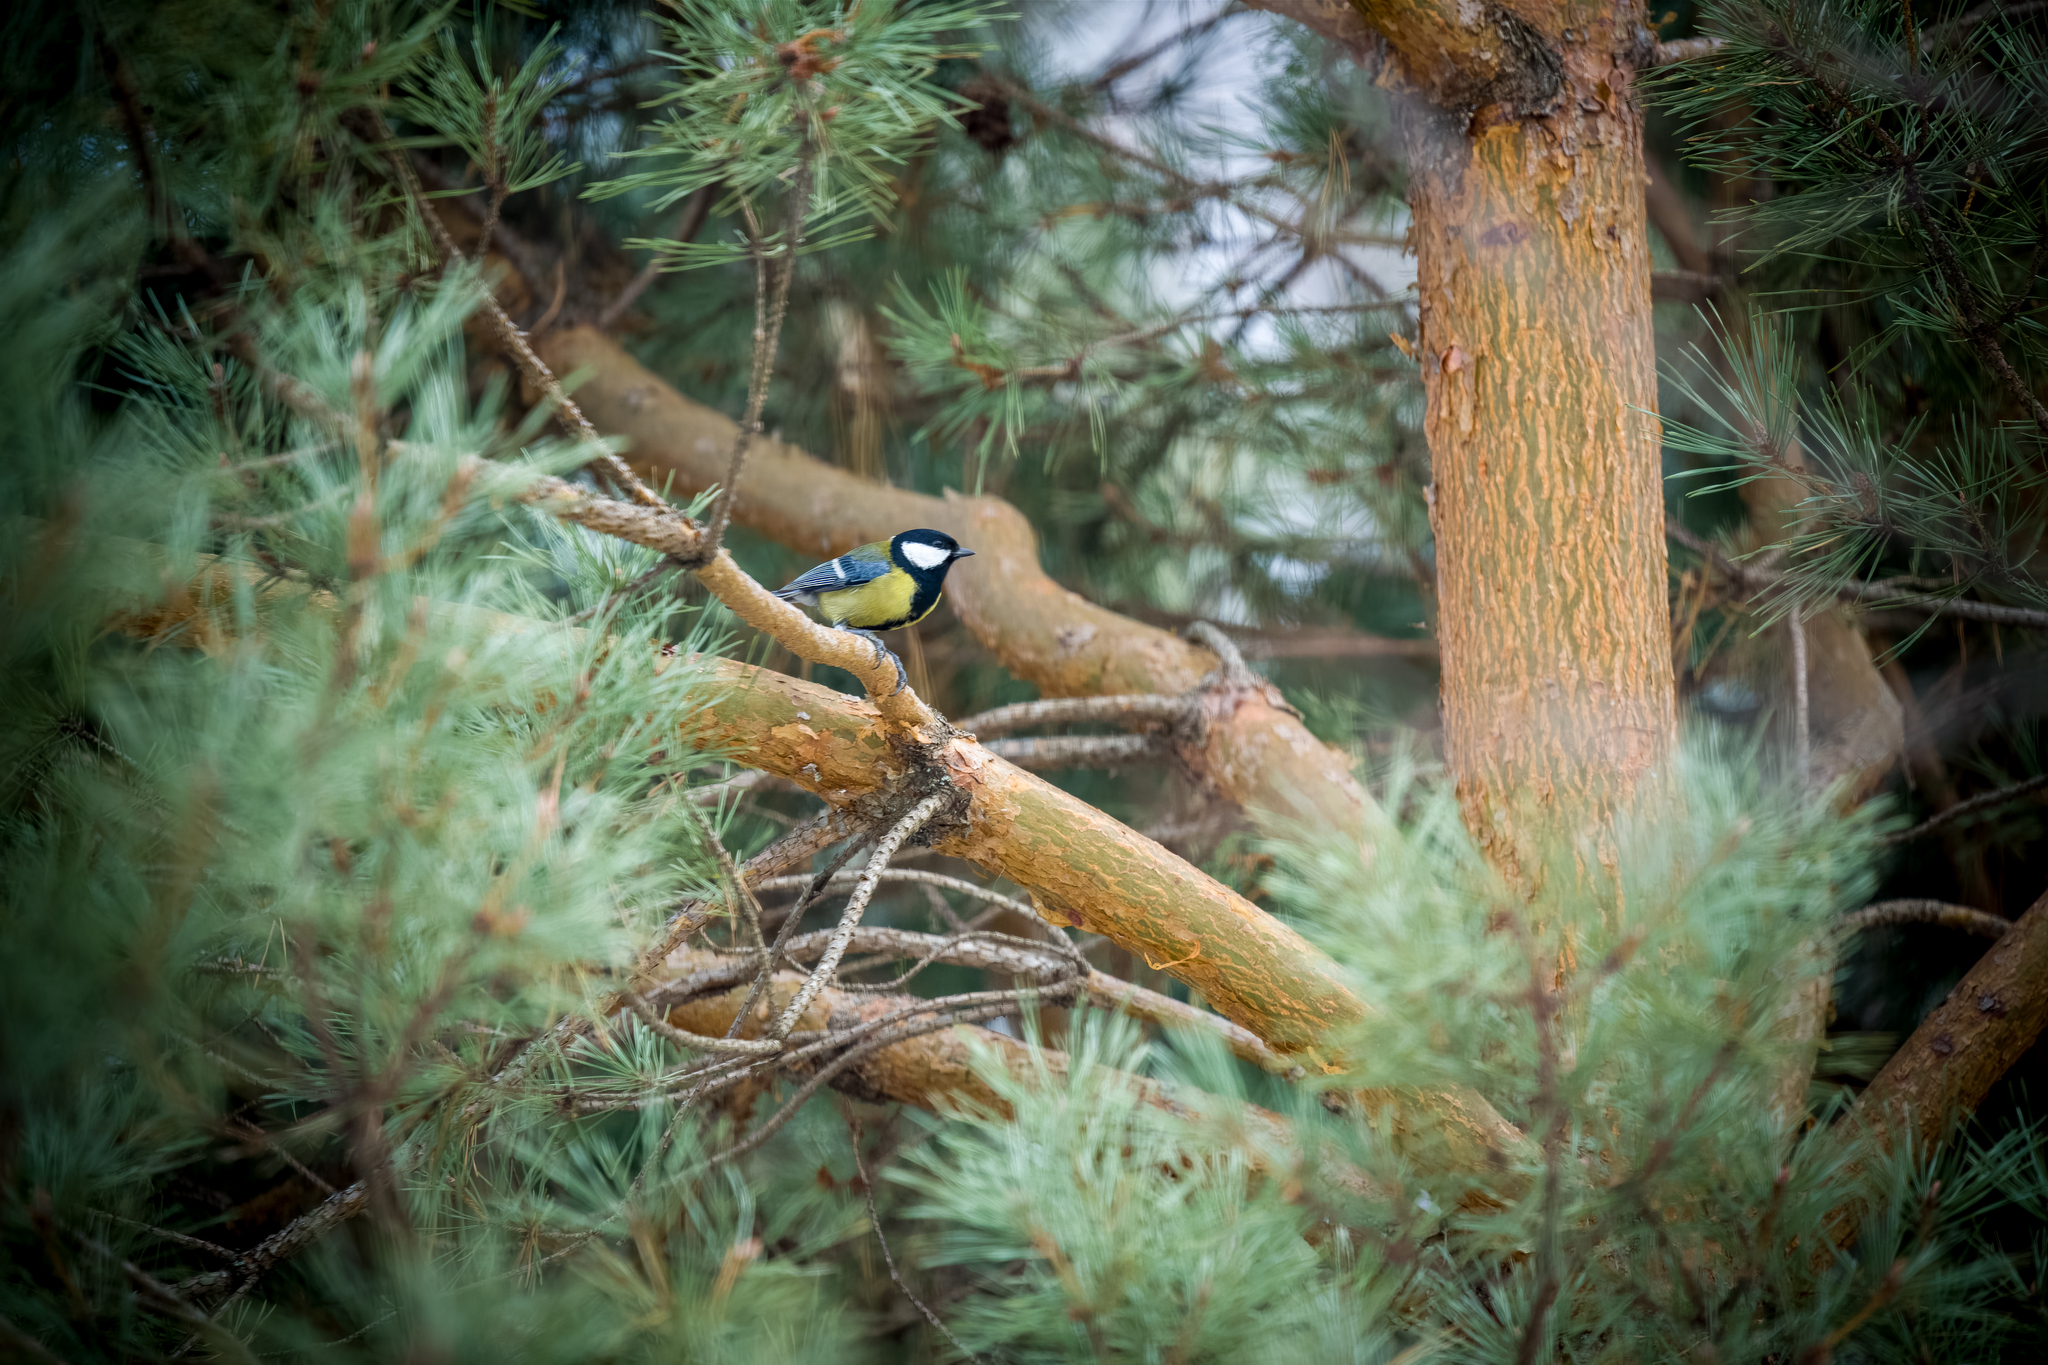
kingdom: Animalia
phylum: Chordata
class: Aves
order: Passeriformes
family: Paridae
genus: Parus
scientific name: Parus major
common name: Great tit
